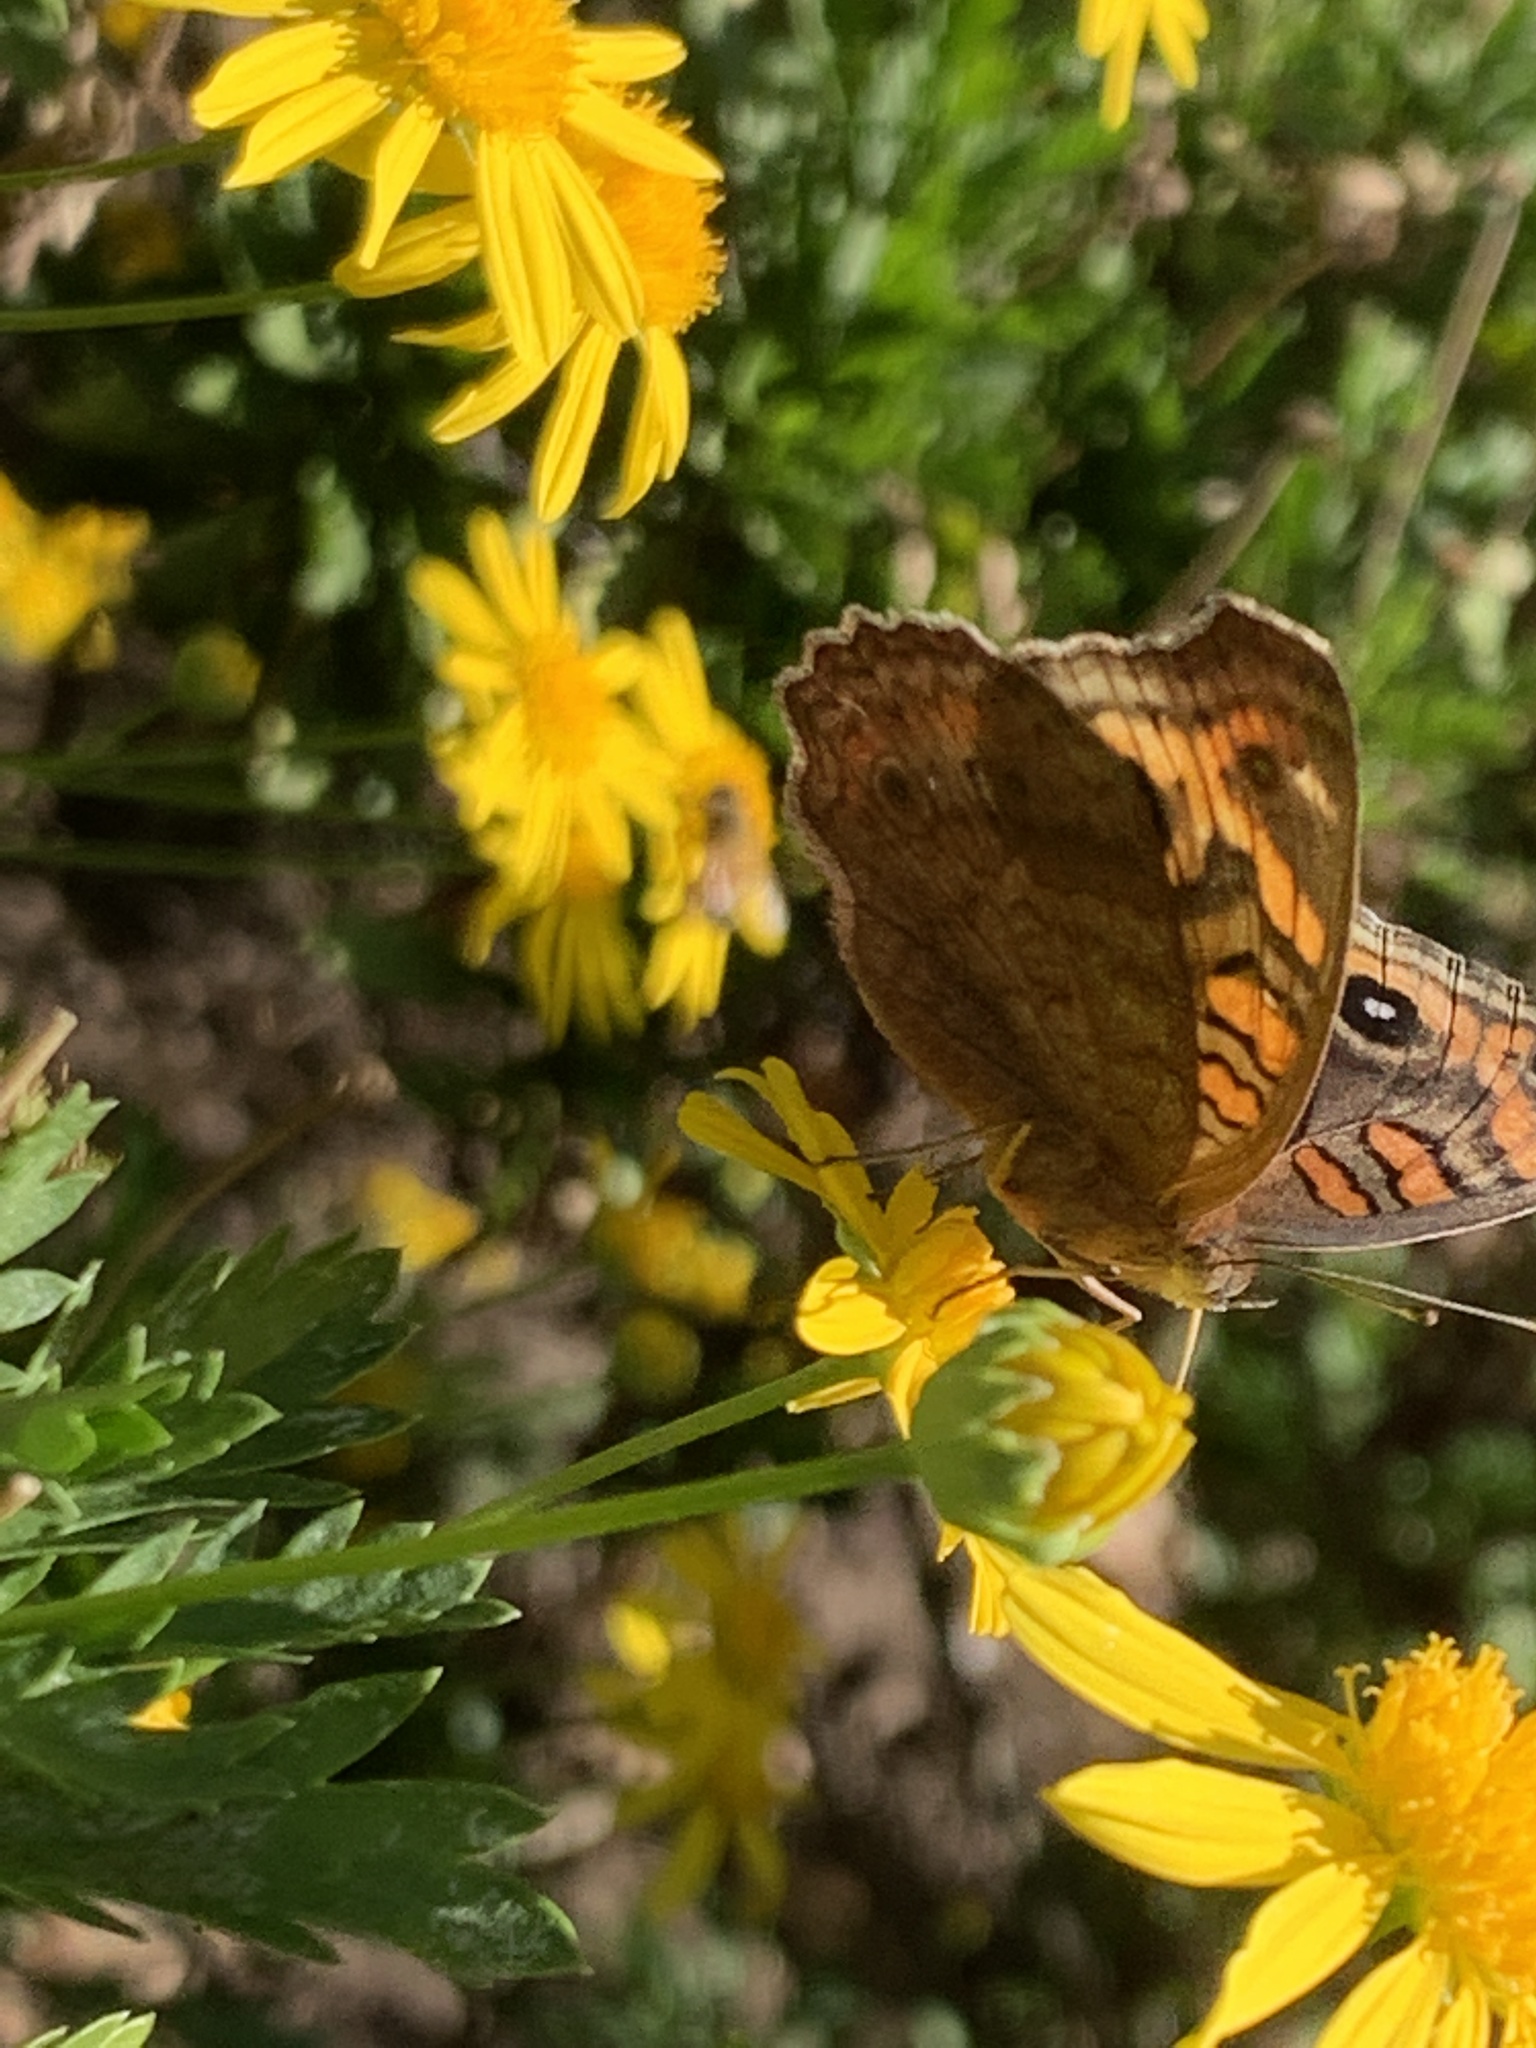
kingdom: Animalia
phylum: Arthropoda
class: Insecta
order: Lepidoptera
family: Nymphalidae
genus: Junonia
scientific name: Junonia lavinia
